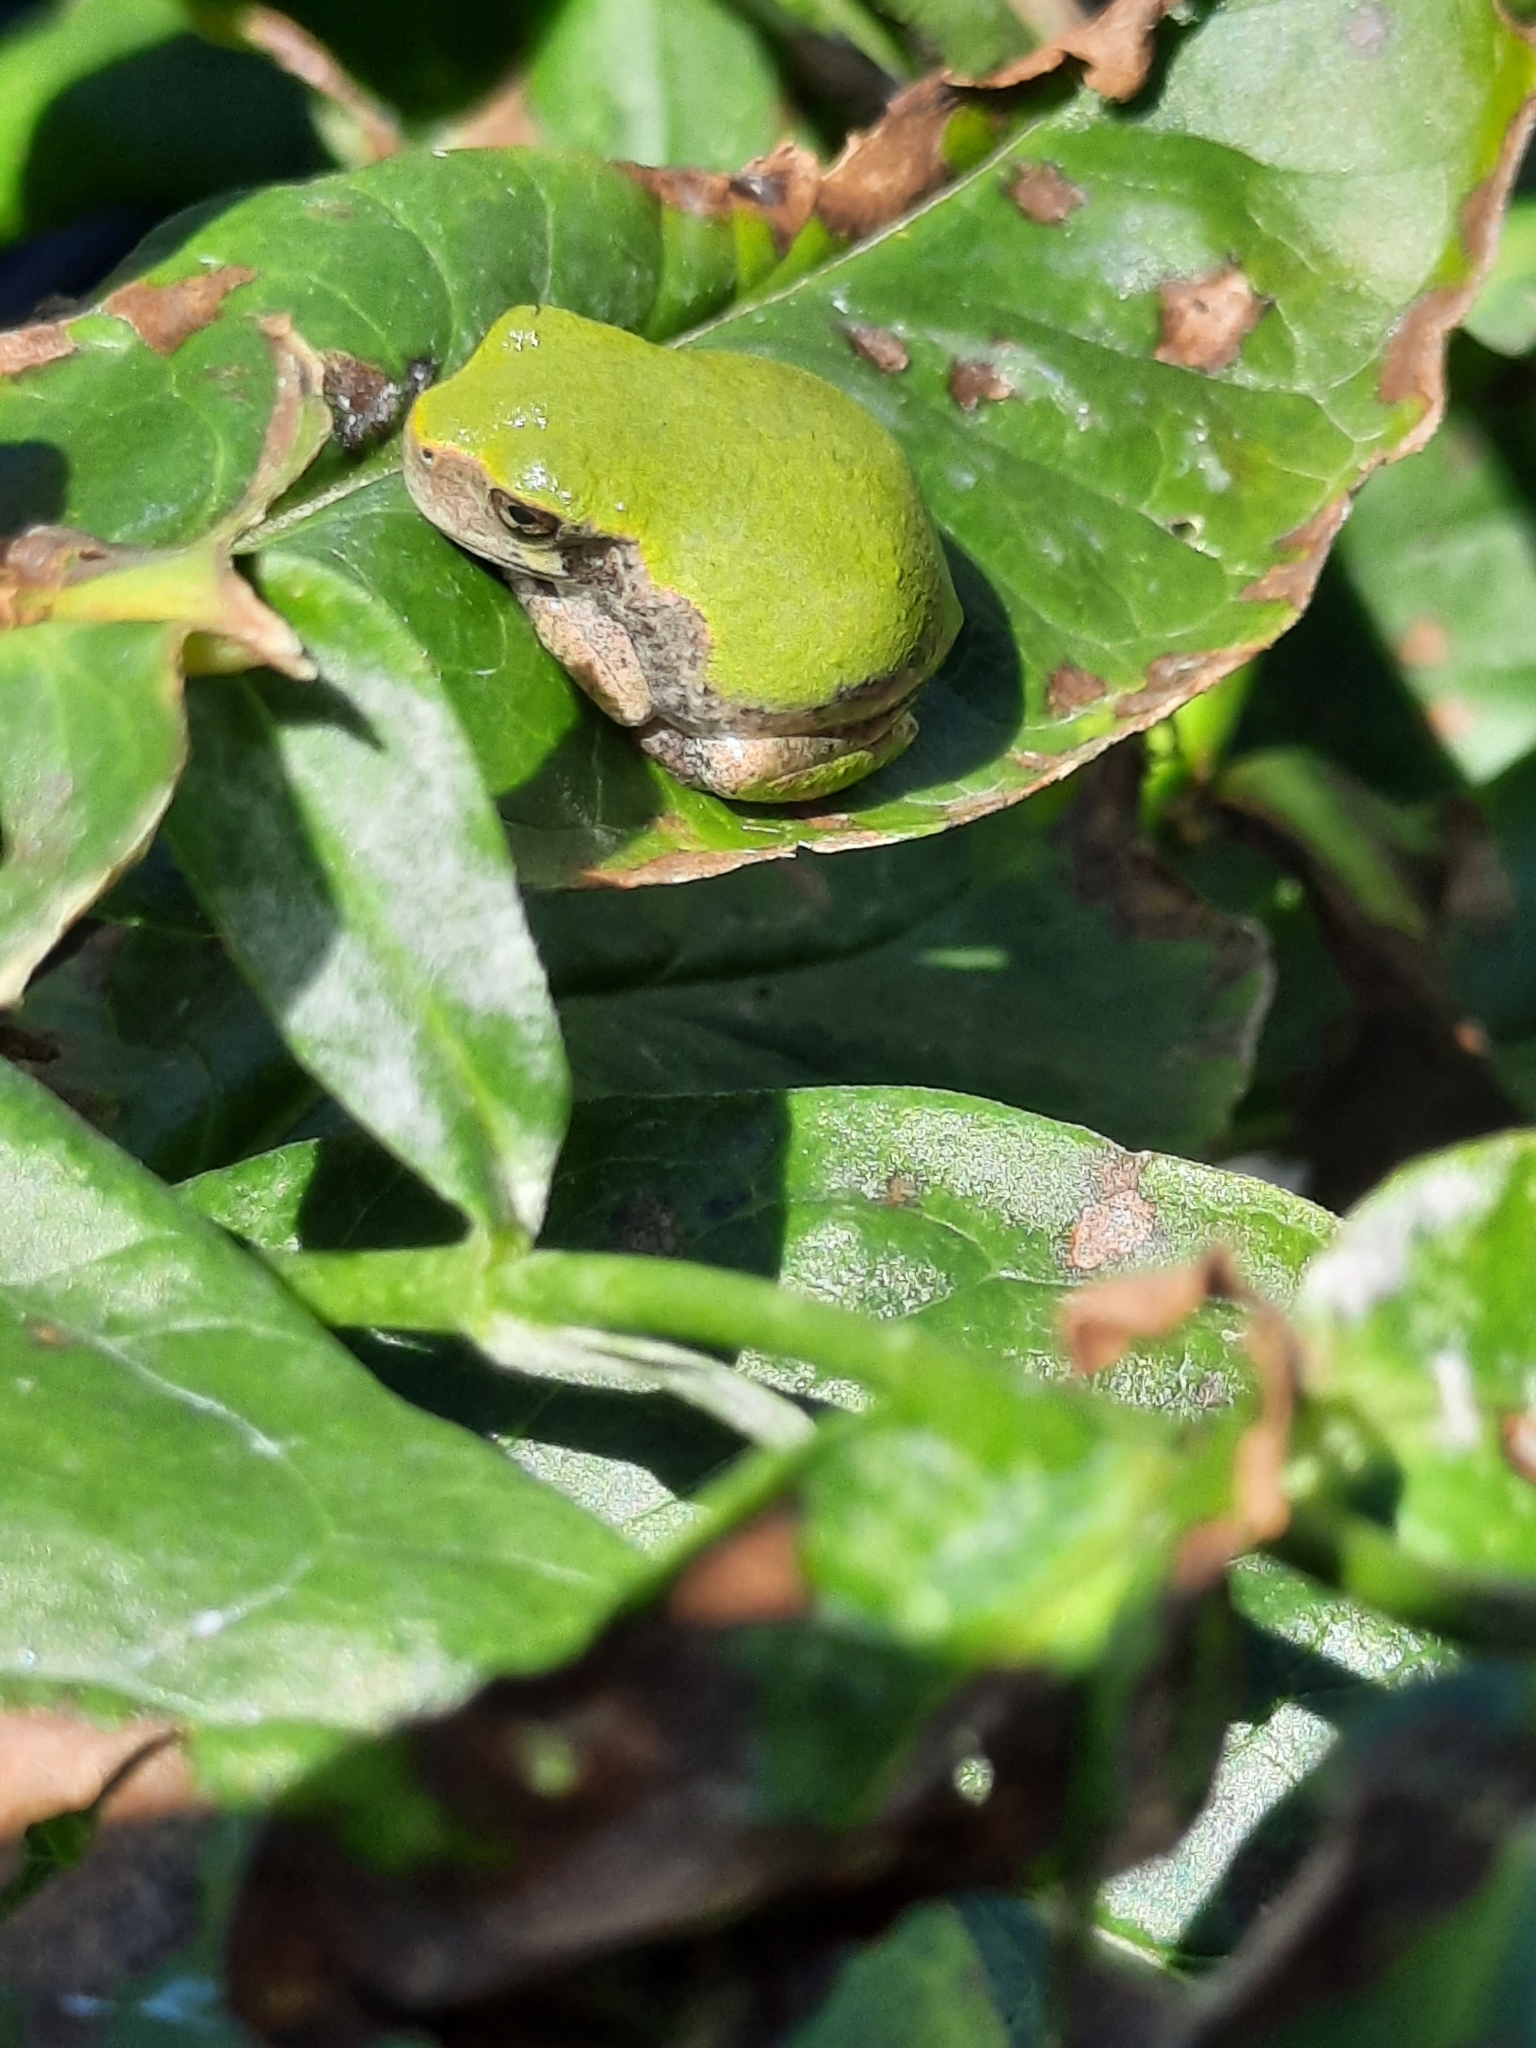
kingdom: Animalia
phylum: Chordata
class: Amphibia
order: Anura
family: Hylidae
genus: Dryophytes
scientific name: Dryophytes versicolor
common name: Gray treefrog
